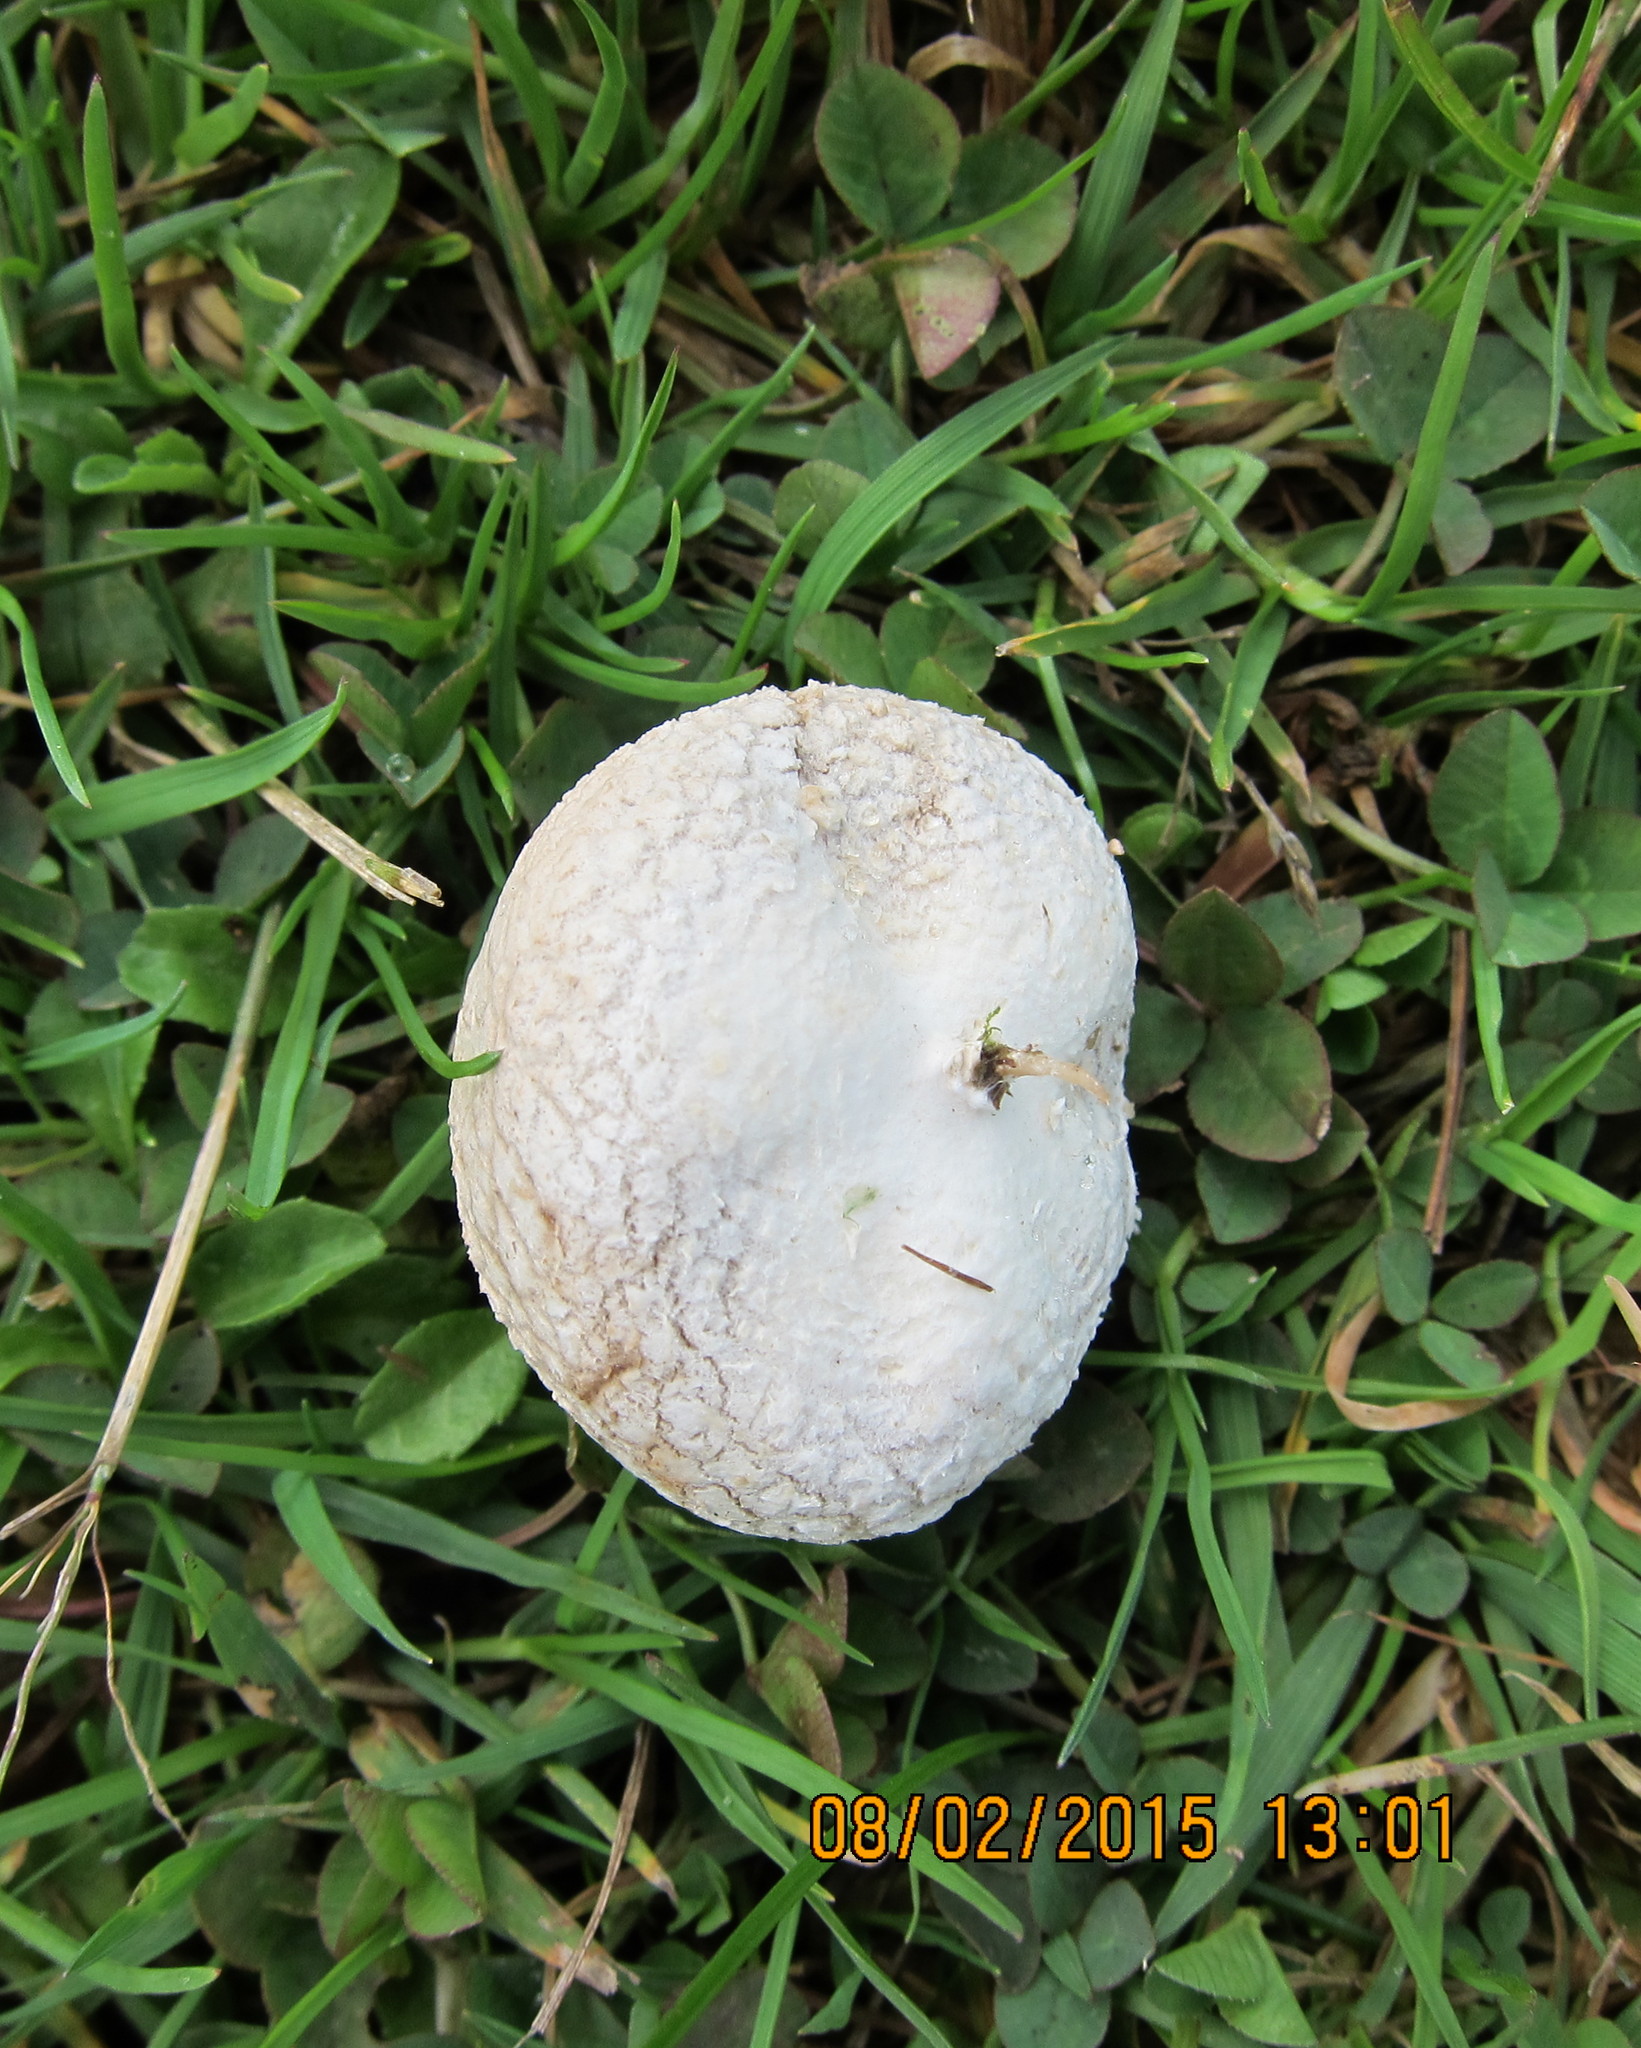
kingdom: Fungi
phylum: Basidiomycota
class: Agaricomycetes
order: Agaricales
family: Lycoperdaceae
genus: Bovista
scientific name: Bovista plumbea
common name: Grey puffball
